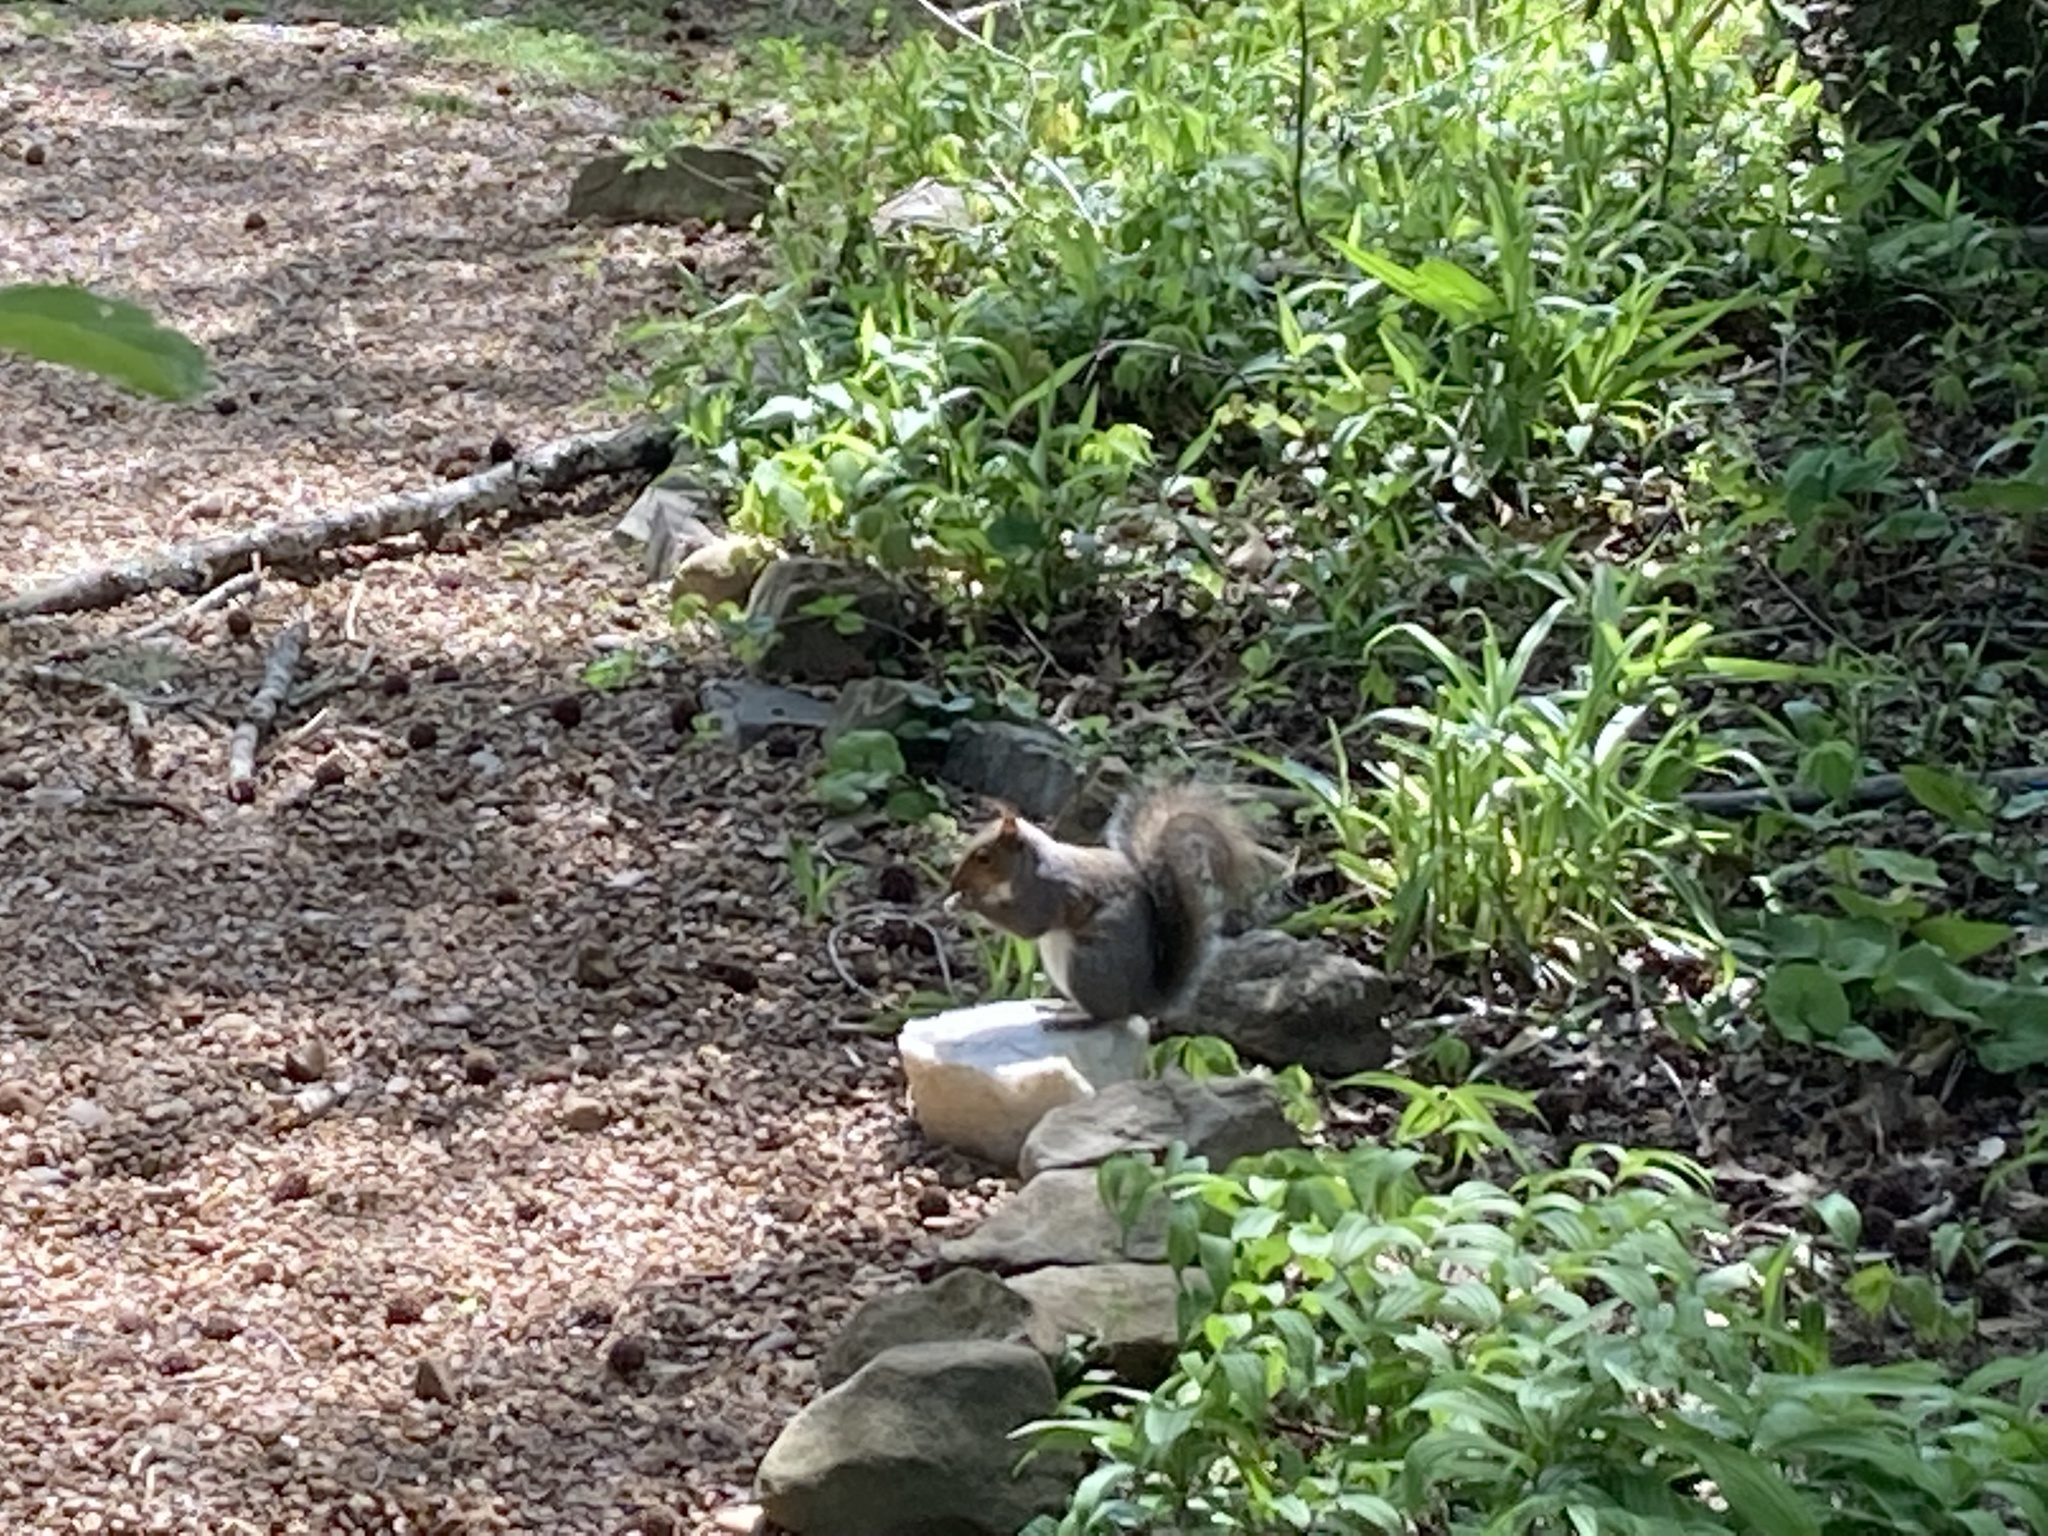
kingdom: Animalia
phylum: Chordata
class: Mammalia
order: Rodentia
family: Sciuridae
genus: Sciurus
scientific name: Sciurus carolinensis
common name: Eastern gray squirrel
